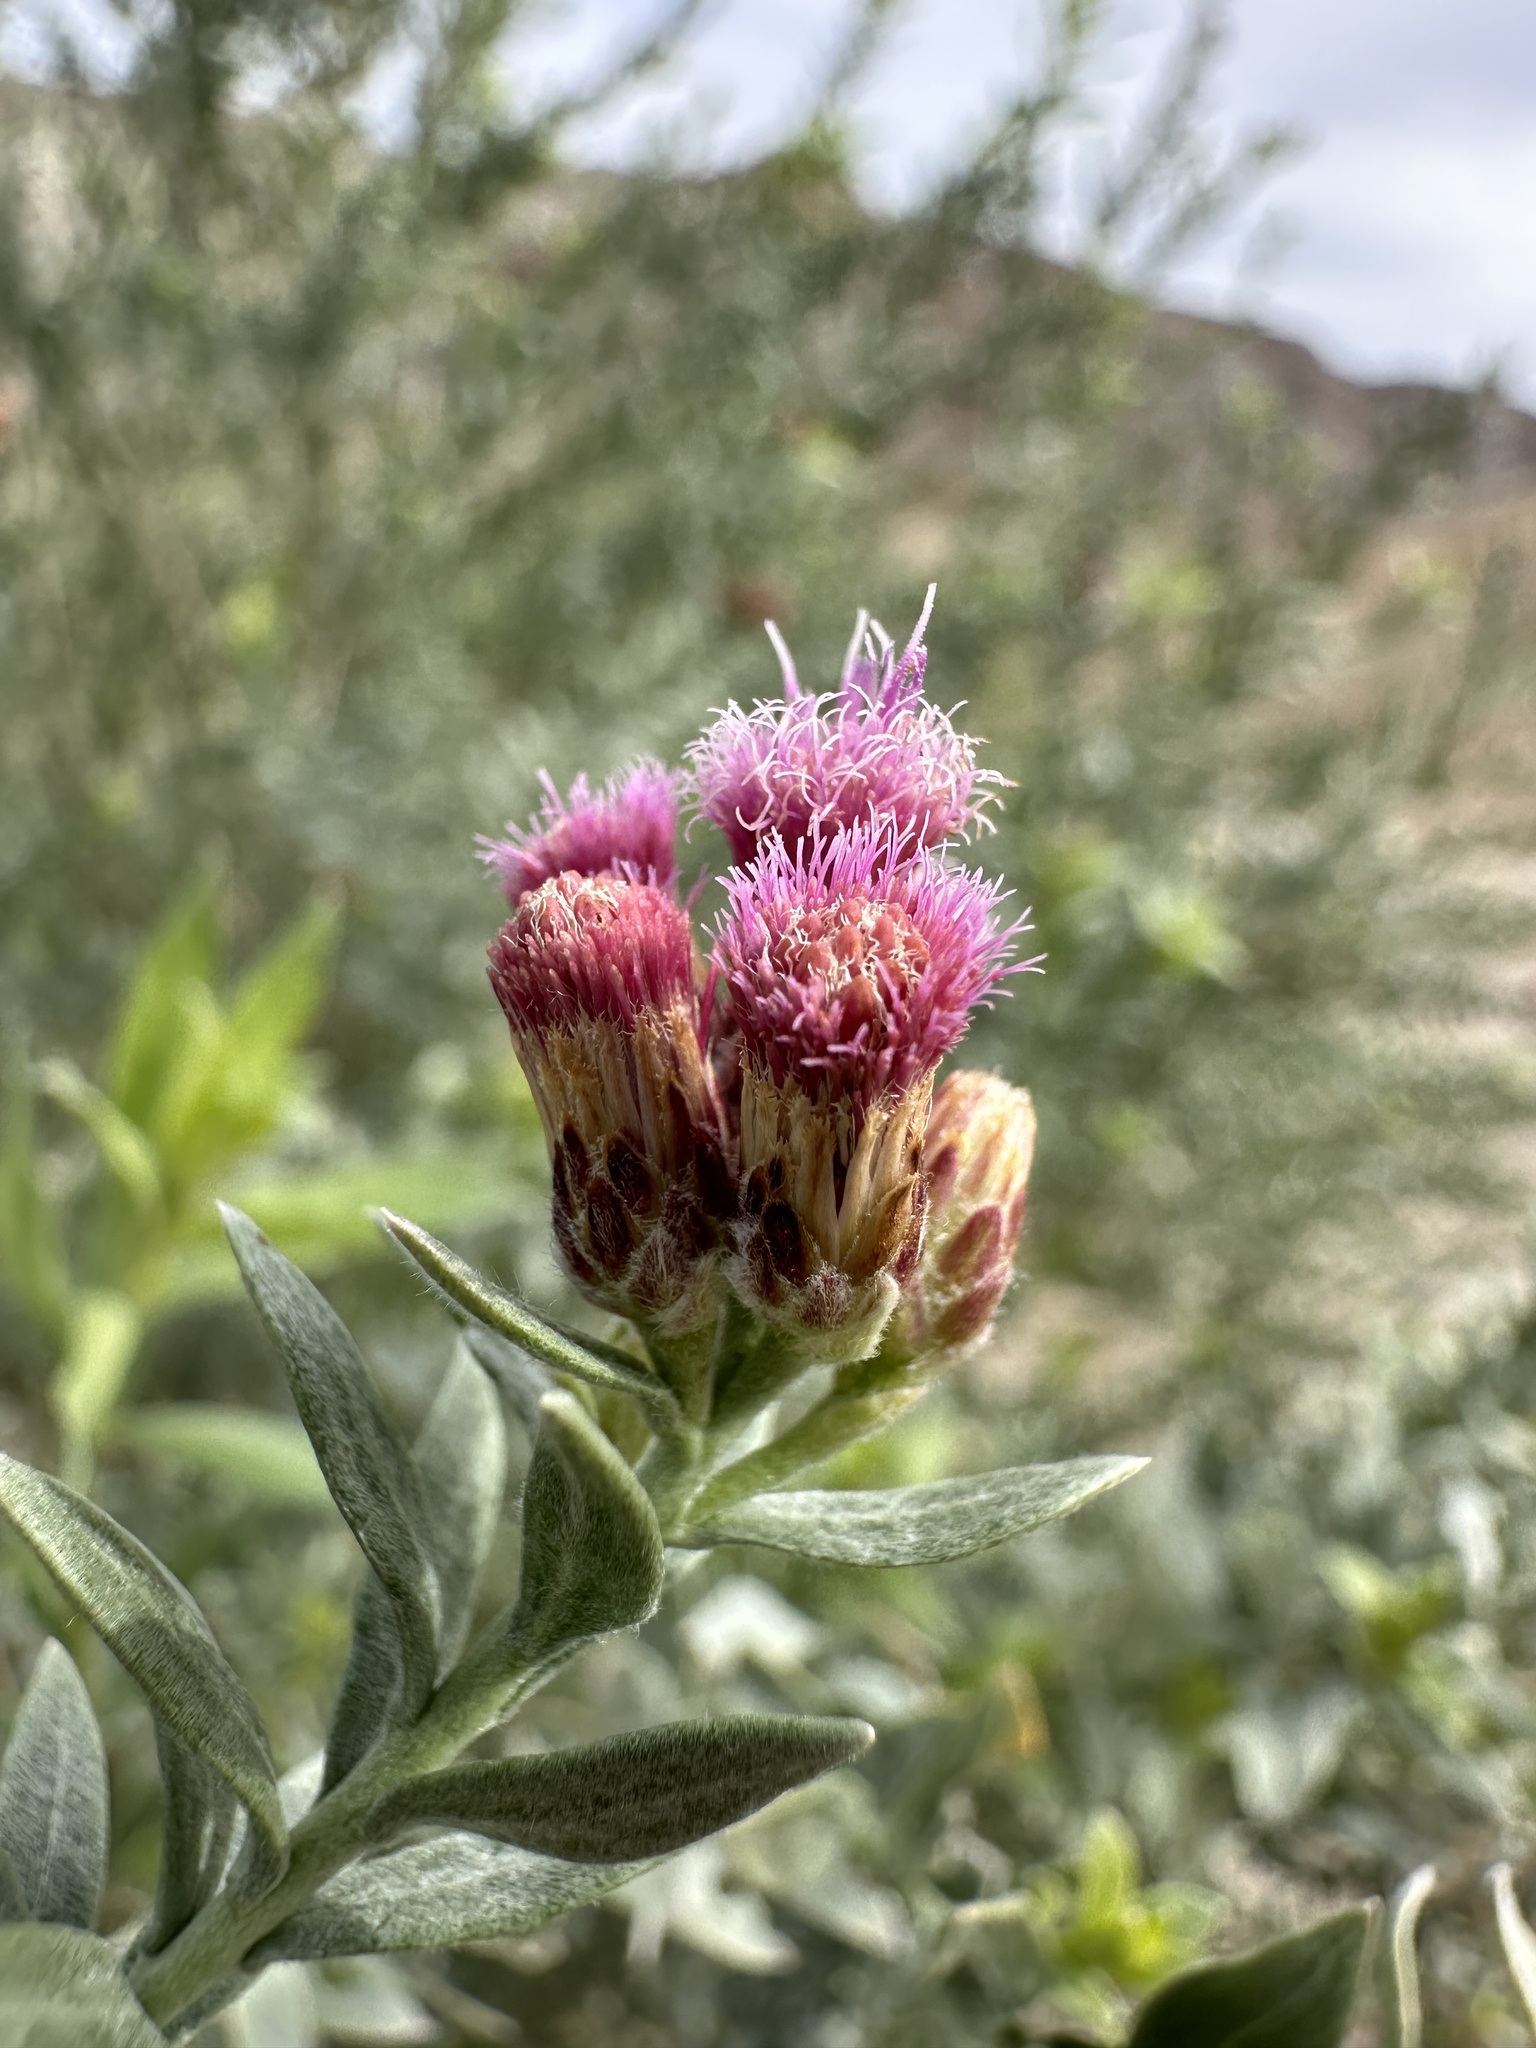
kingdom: Plantae
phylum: Tracheophyta
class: Magnoliopsida
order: Asterales
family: Asteraceae
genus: Pluchea
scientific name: Pluchea sericea
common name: Arrow-weed
